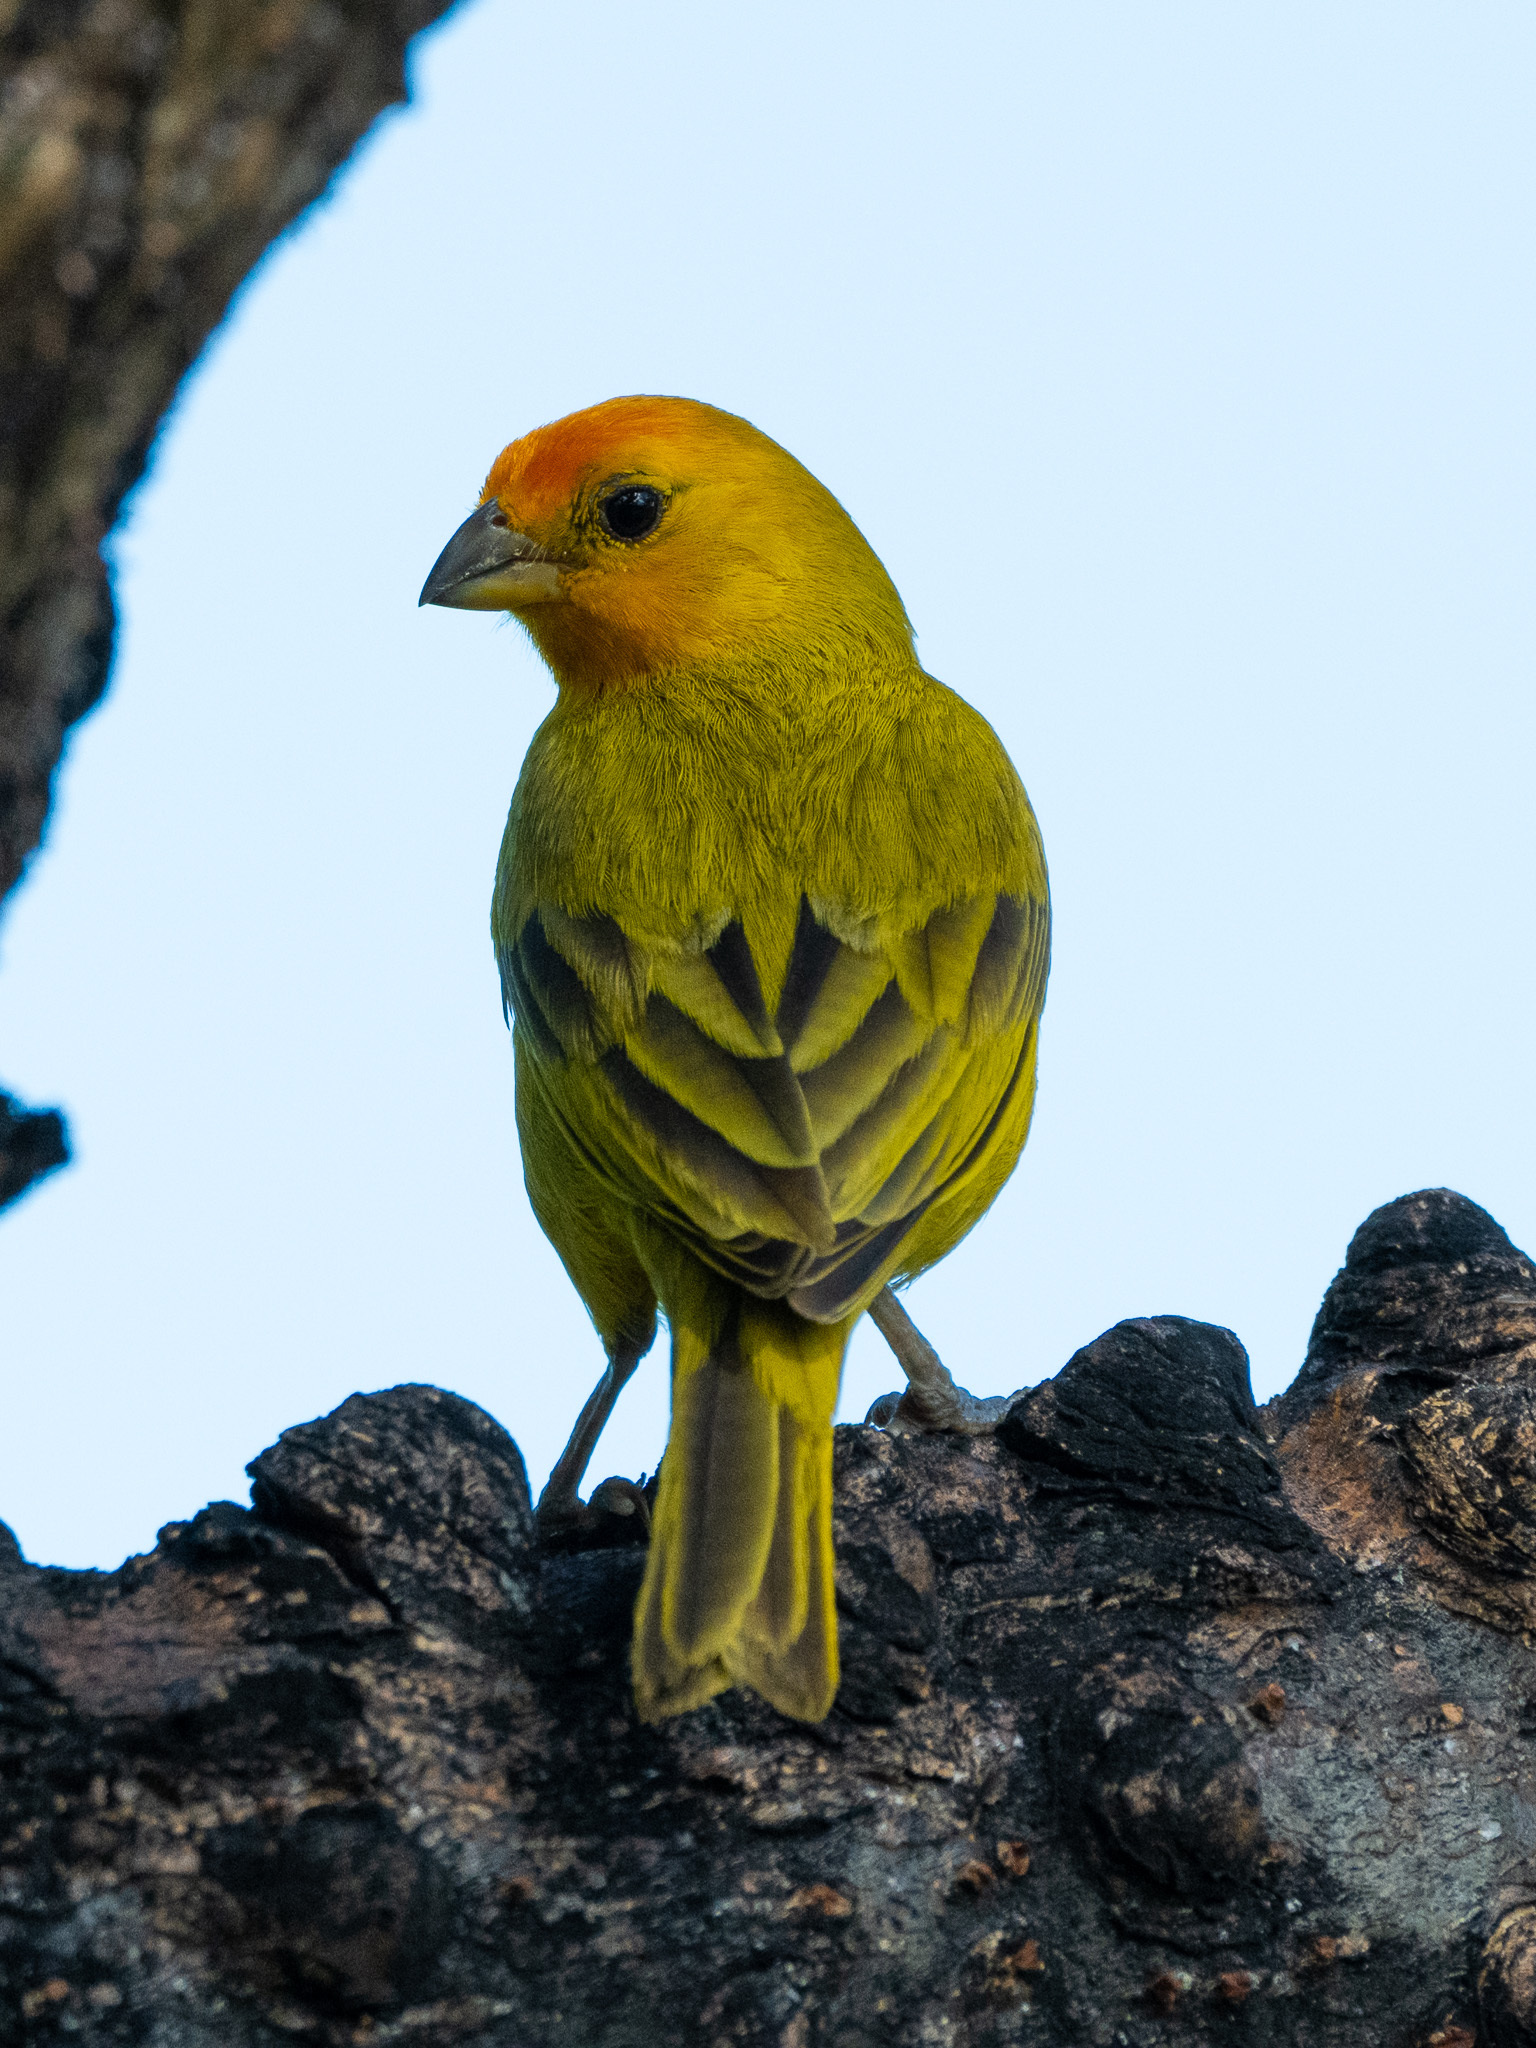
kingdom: Animalia
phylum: Chordata
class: Aves
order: Passeriformes
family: Thraupidae
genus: Sicalis
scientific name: Sicalis flaveola
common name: Saffron finch
